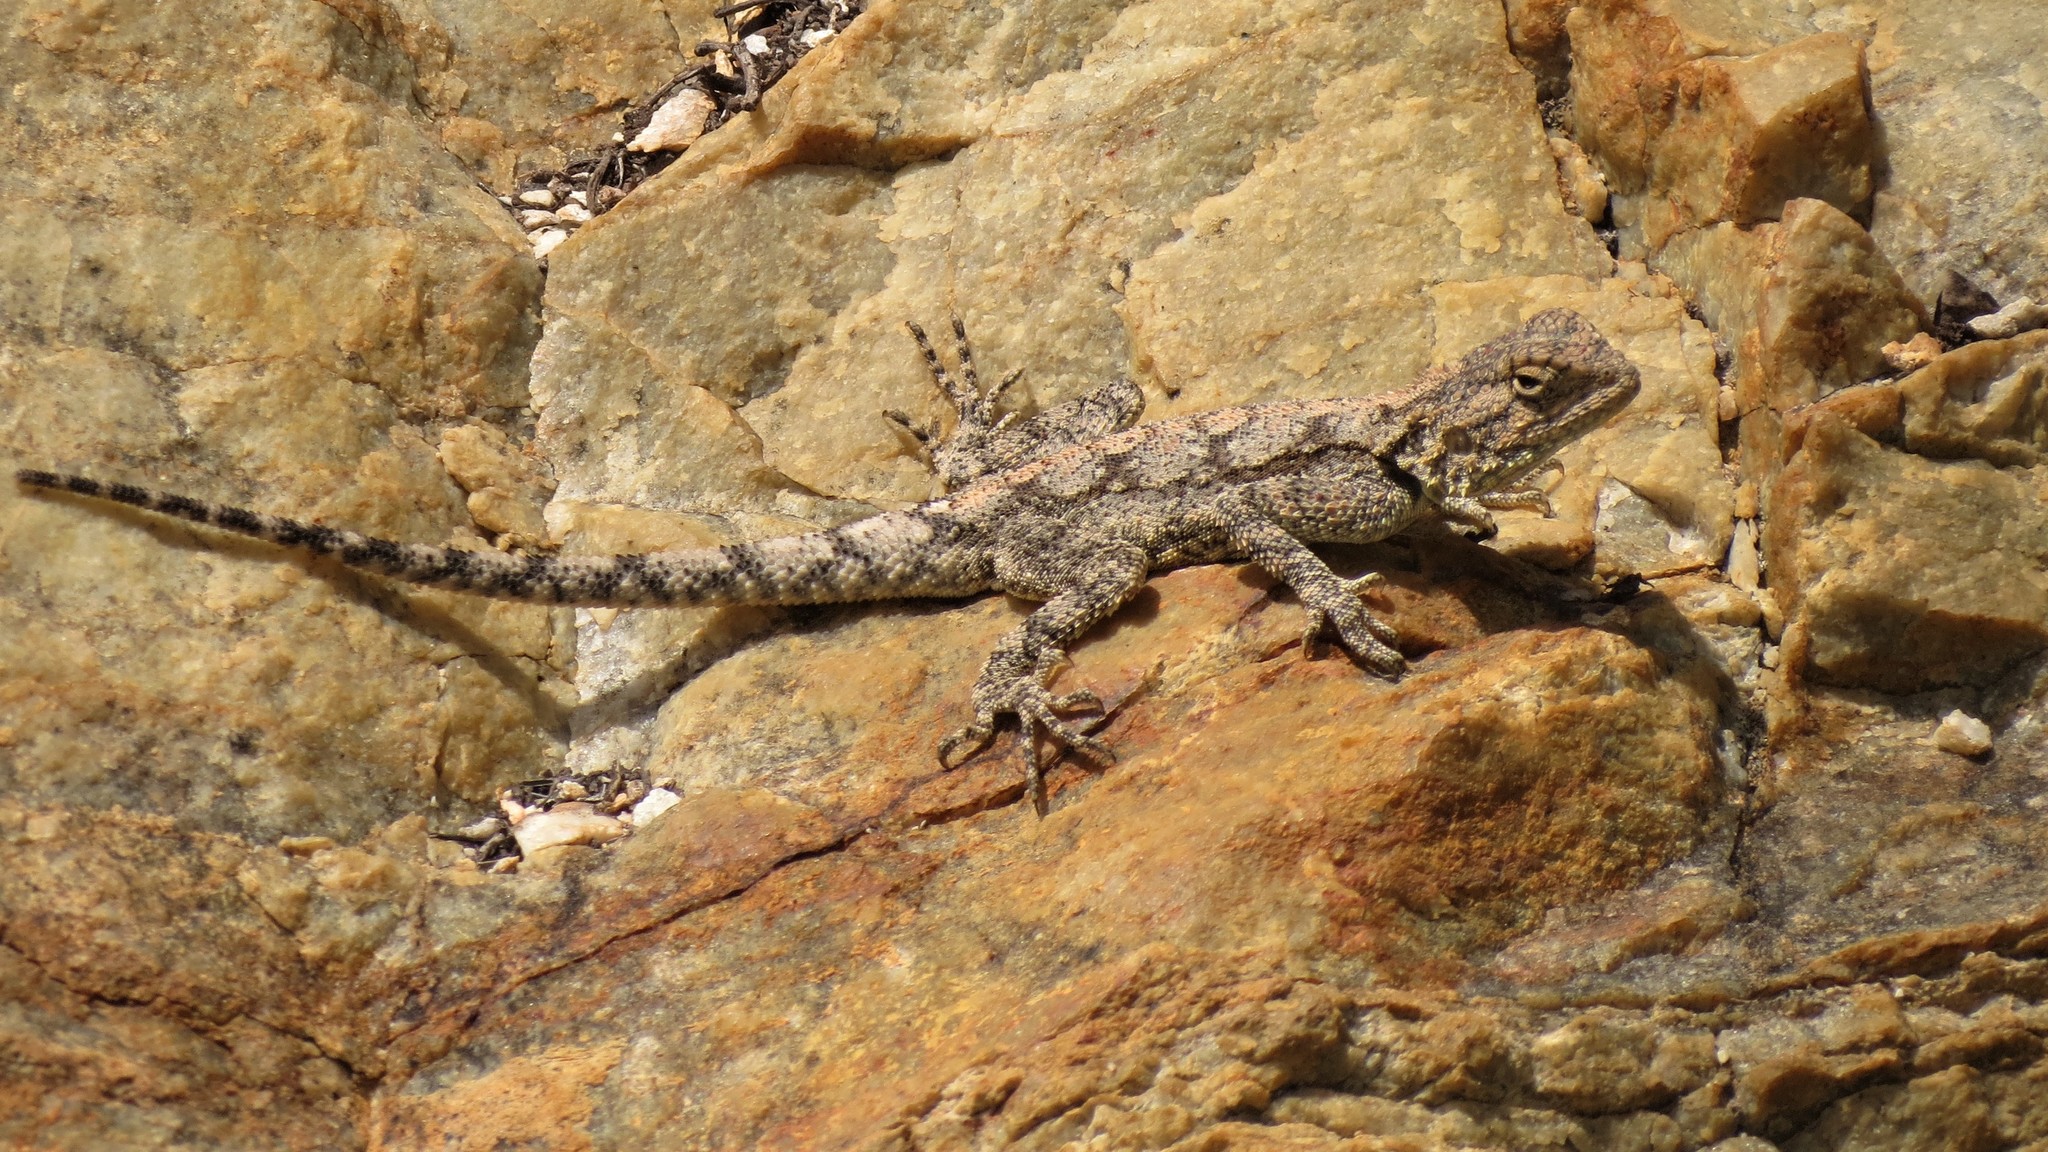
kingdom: Animalia
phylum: Chordata
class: Squamata
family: Agamidae
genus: Agama
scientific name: Agama atra
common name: Southern african rock agama
